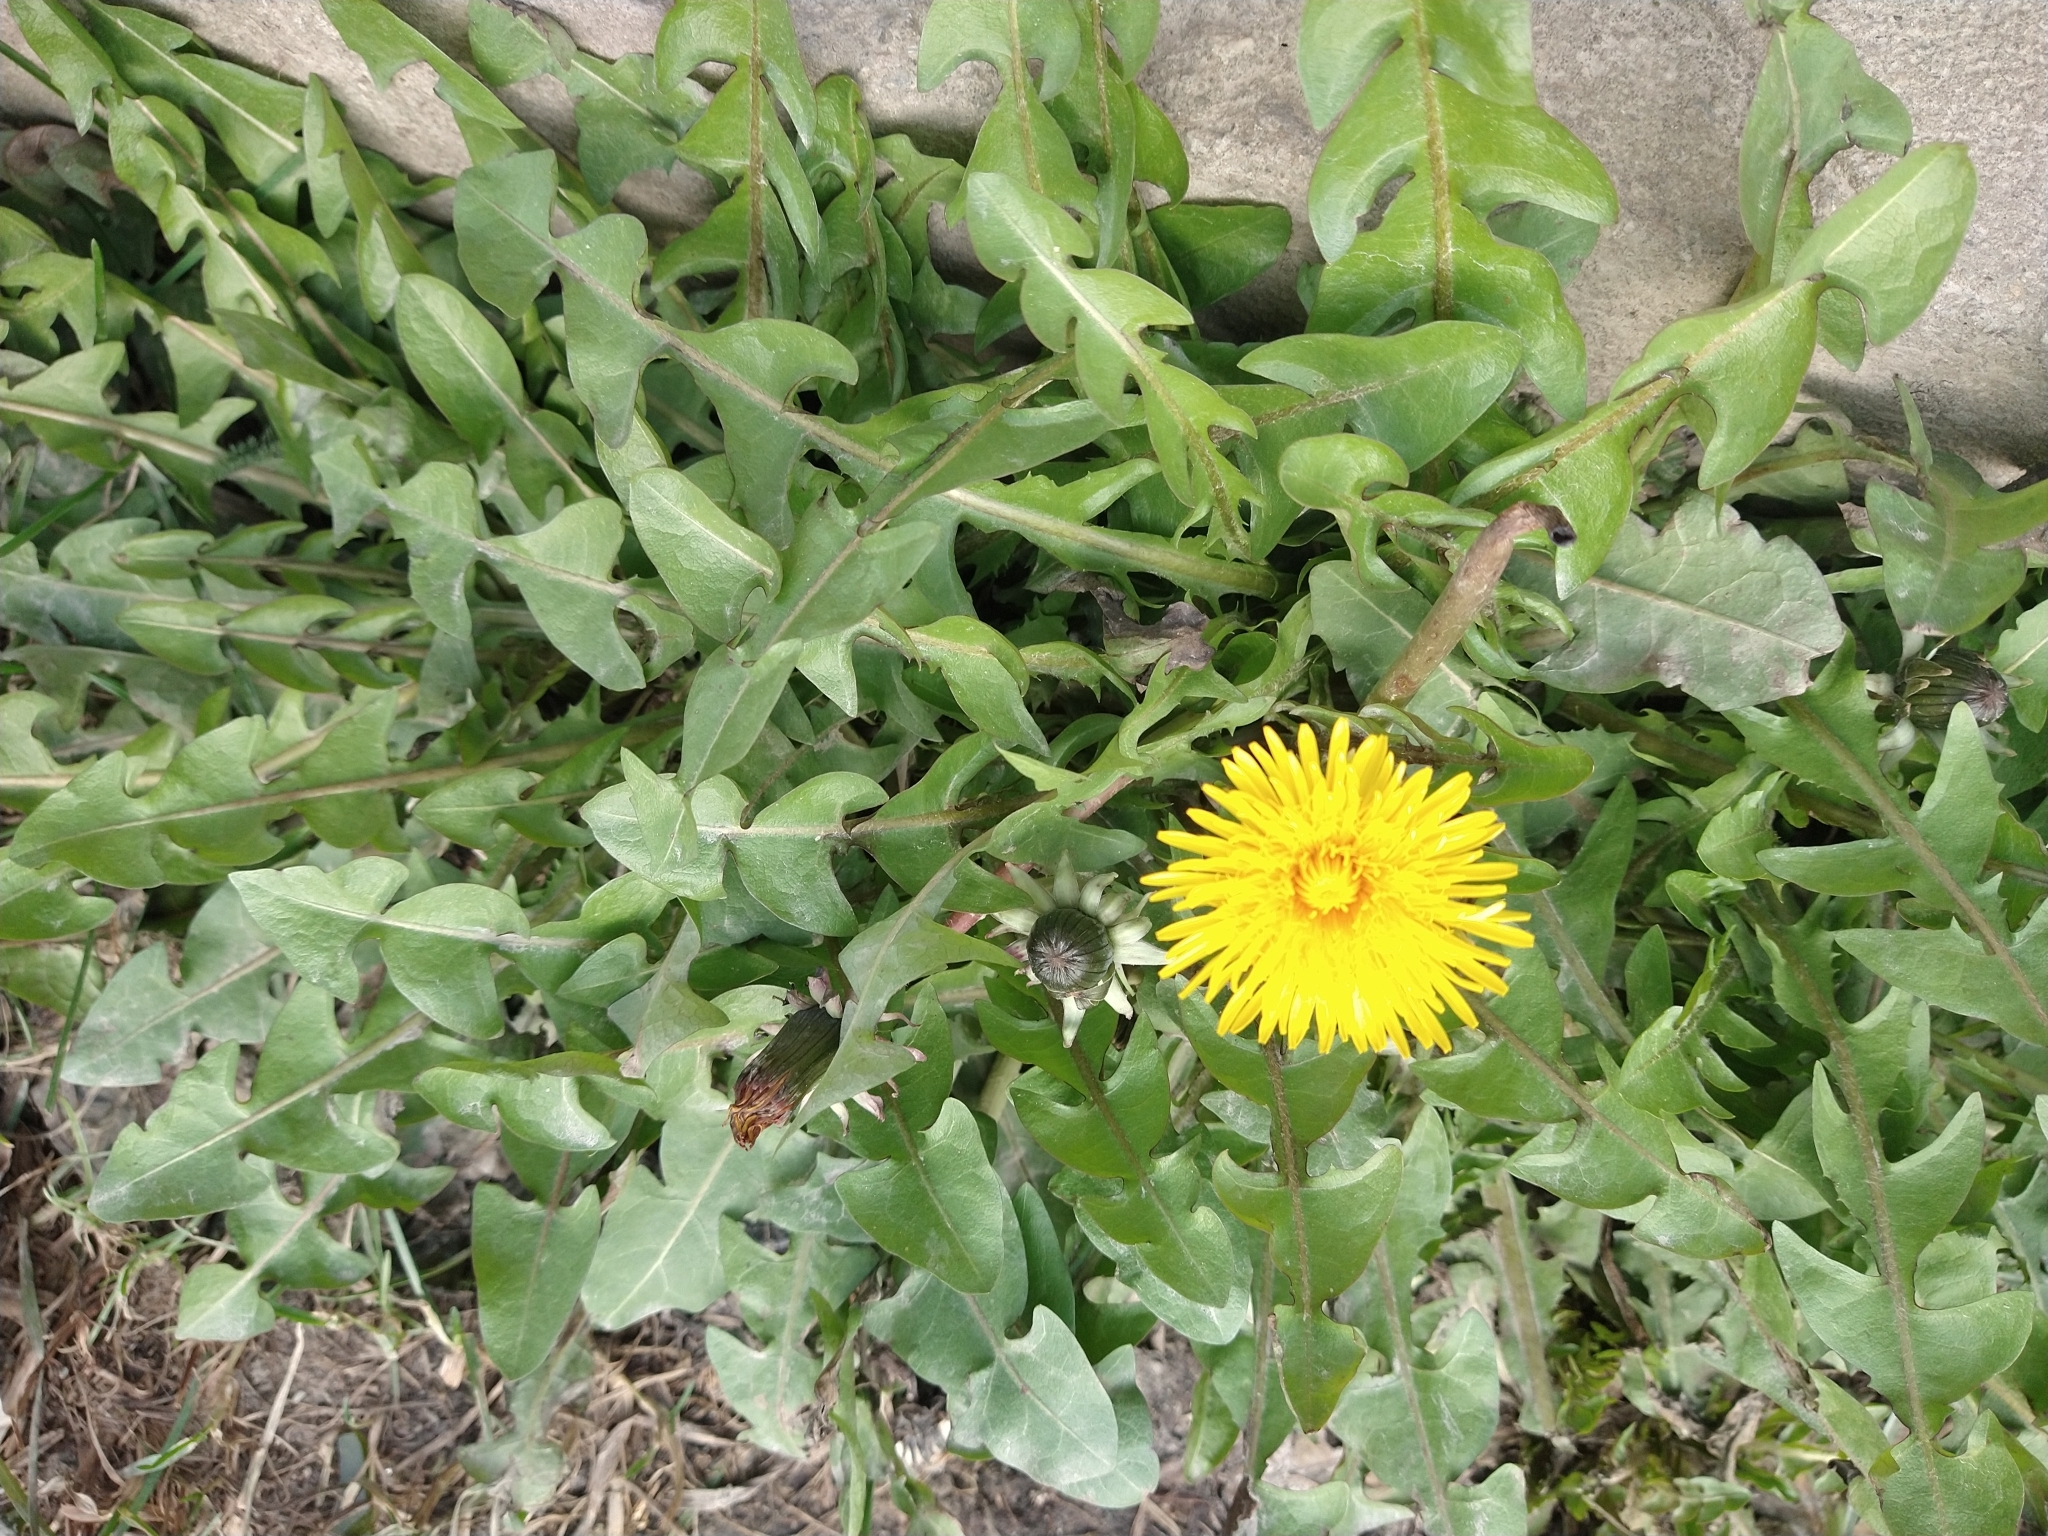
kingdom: Plantae
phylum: Tracheophyta
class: Magnoliopsida
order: Asterales
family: Asteraceae
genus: Taraxacum
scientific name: Taraxacum officinale
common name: Common dandelion
